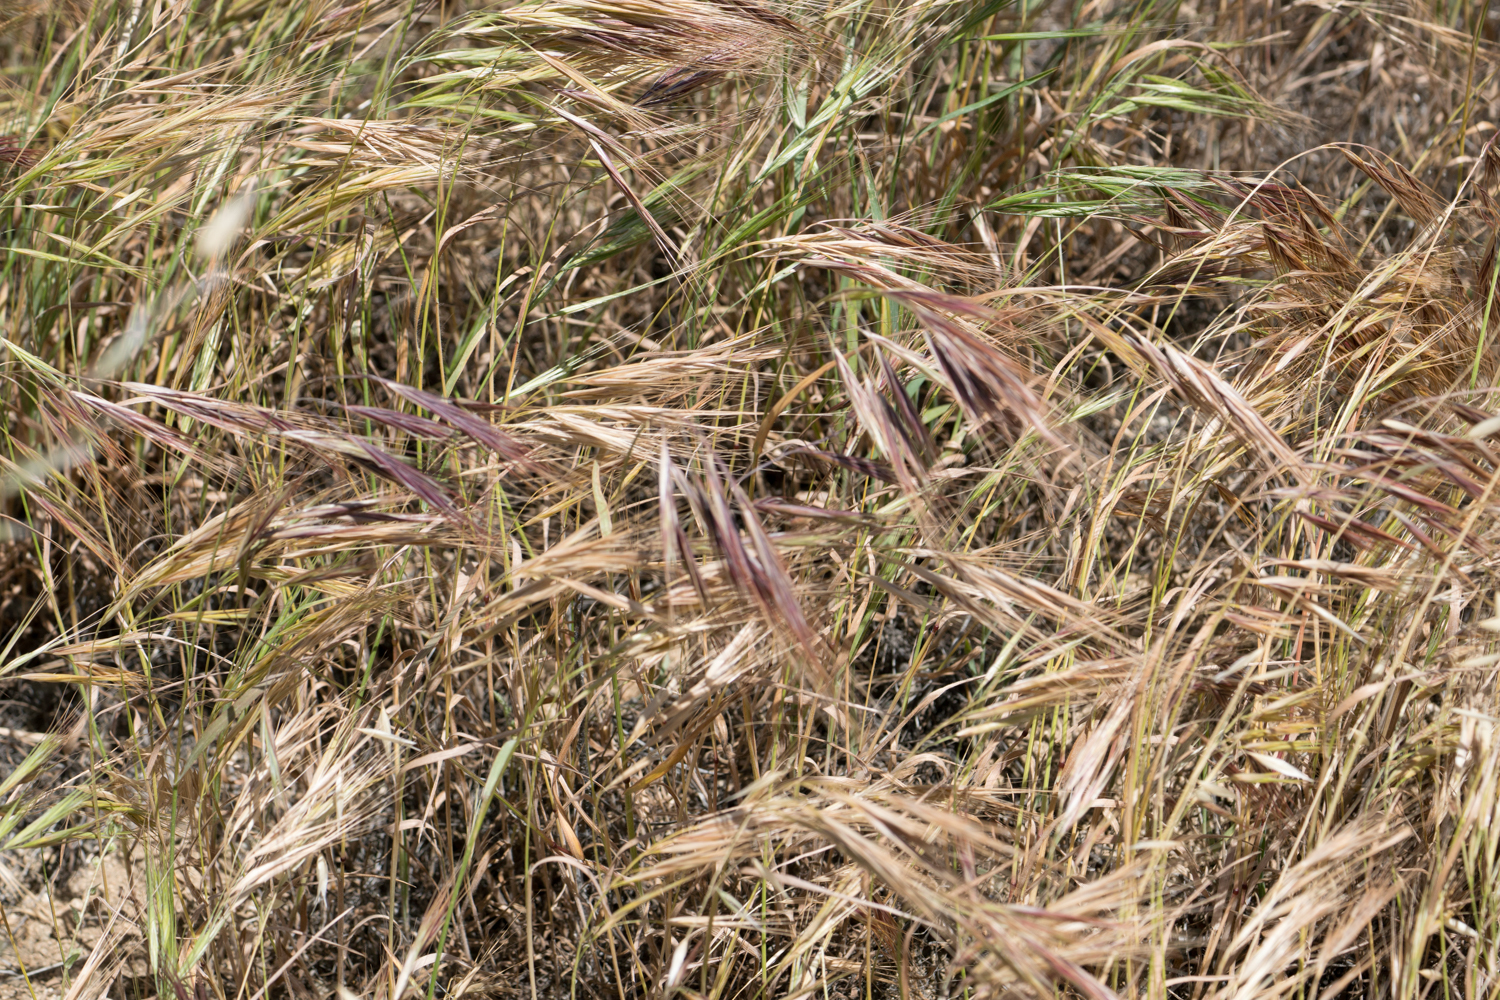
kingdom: Plantae
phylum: Tracheophyta
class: Liliopsida
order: Poales
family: Poaceae
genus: Bromus
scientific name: Bromus diandrus
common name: Ripgut brome
